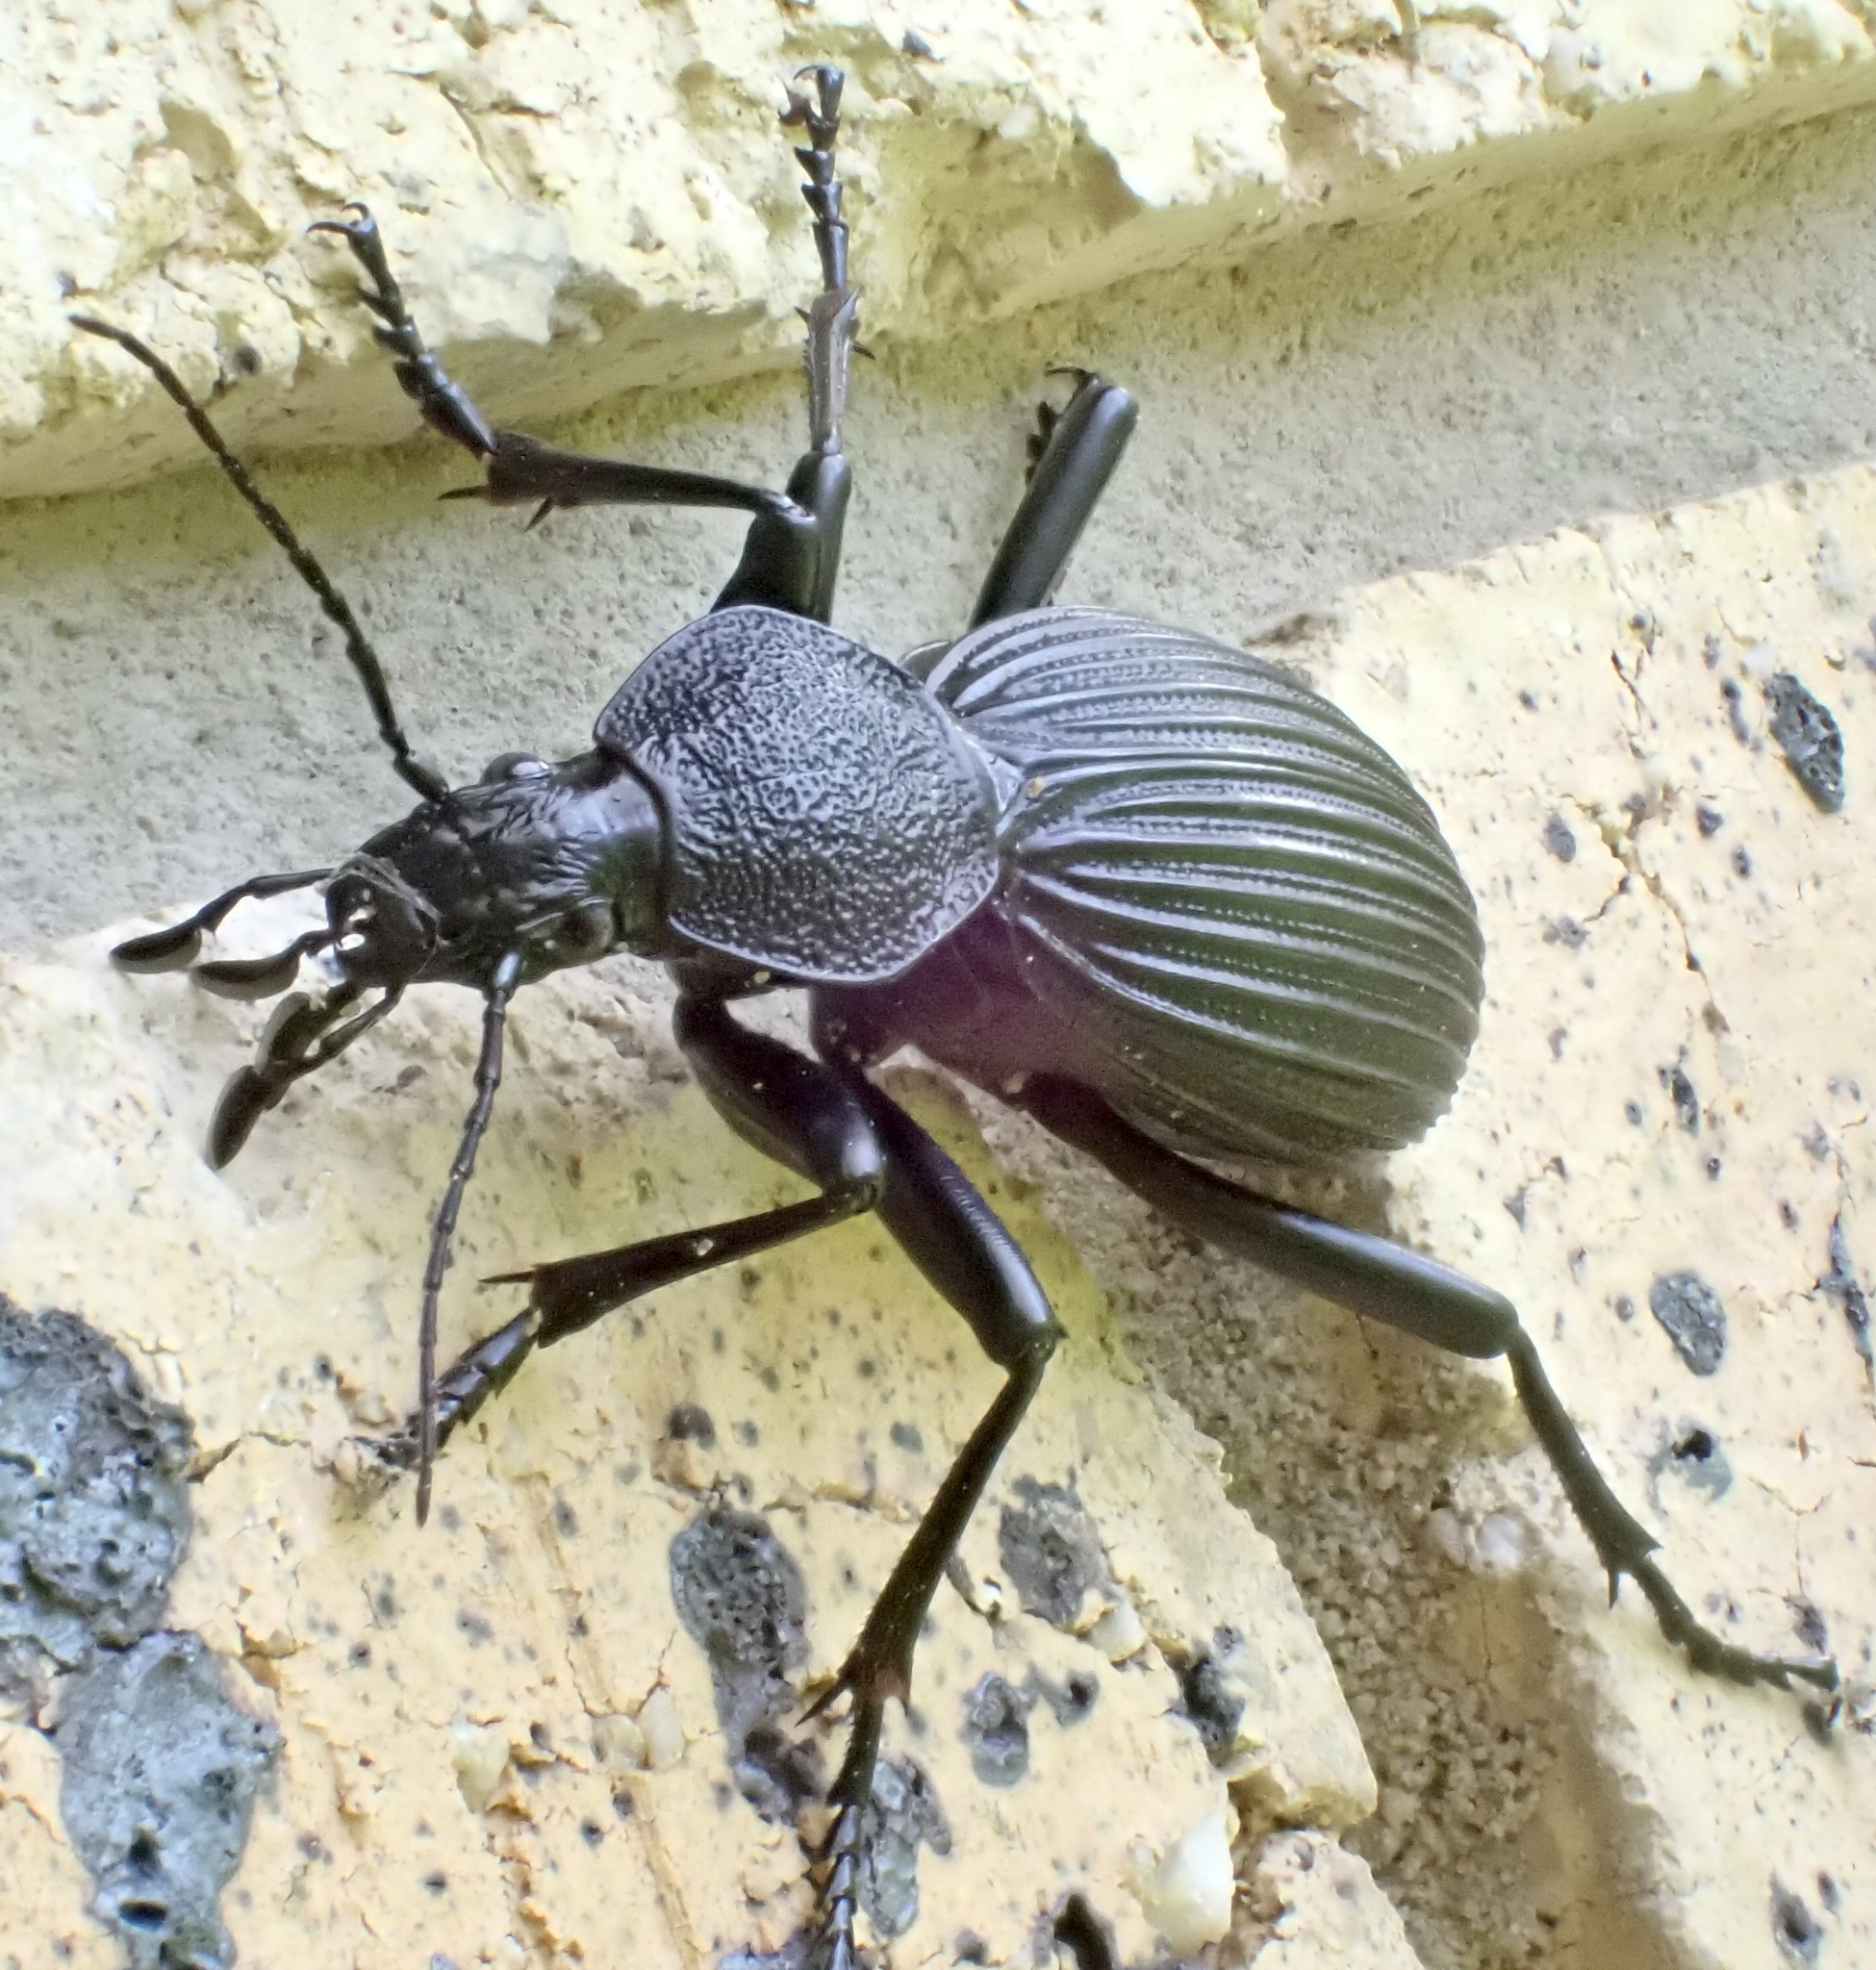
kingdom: Animalia
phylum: Arthropoda
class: Insecta
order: Coleoptera
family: Carabidae
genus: Tefflus
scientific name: Tefflus meyerlei
